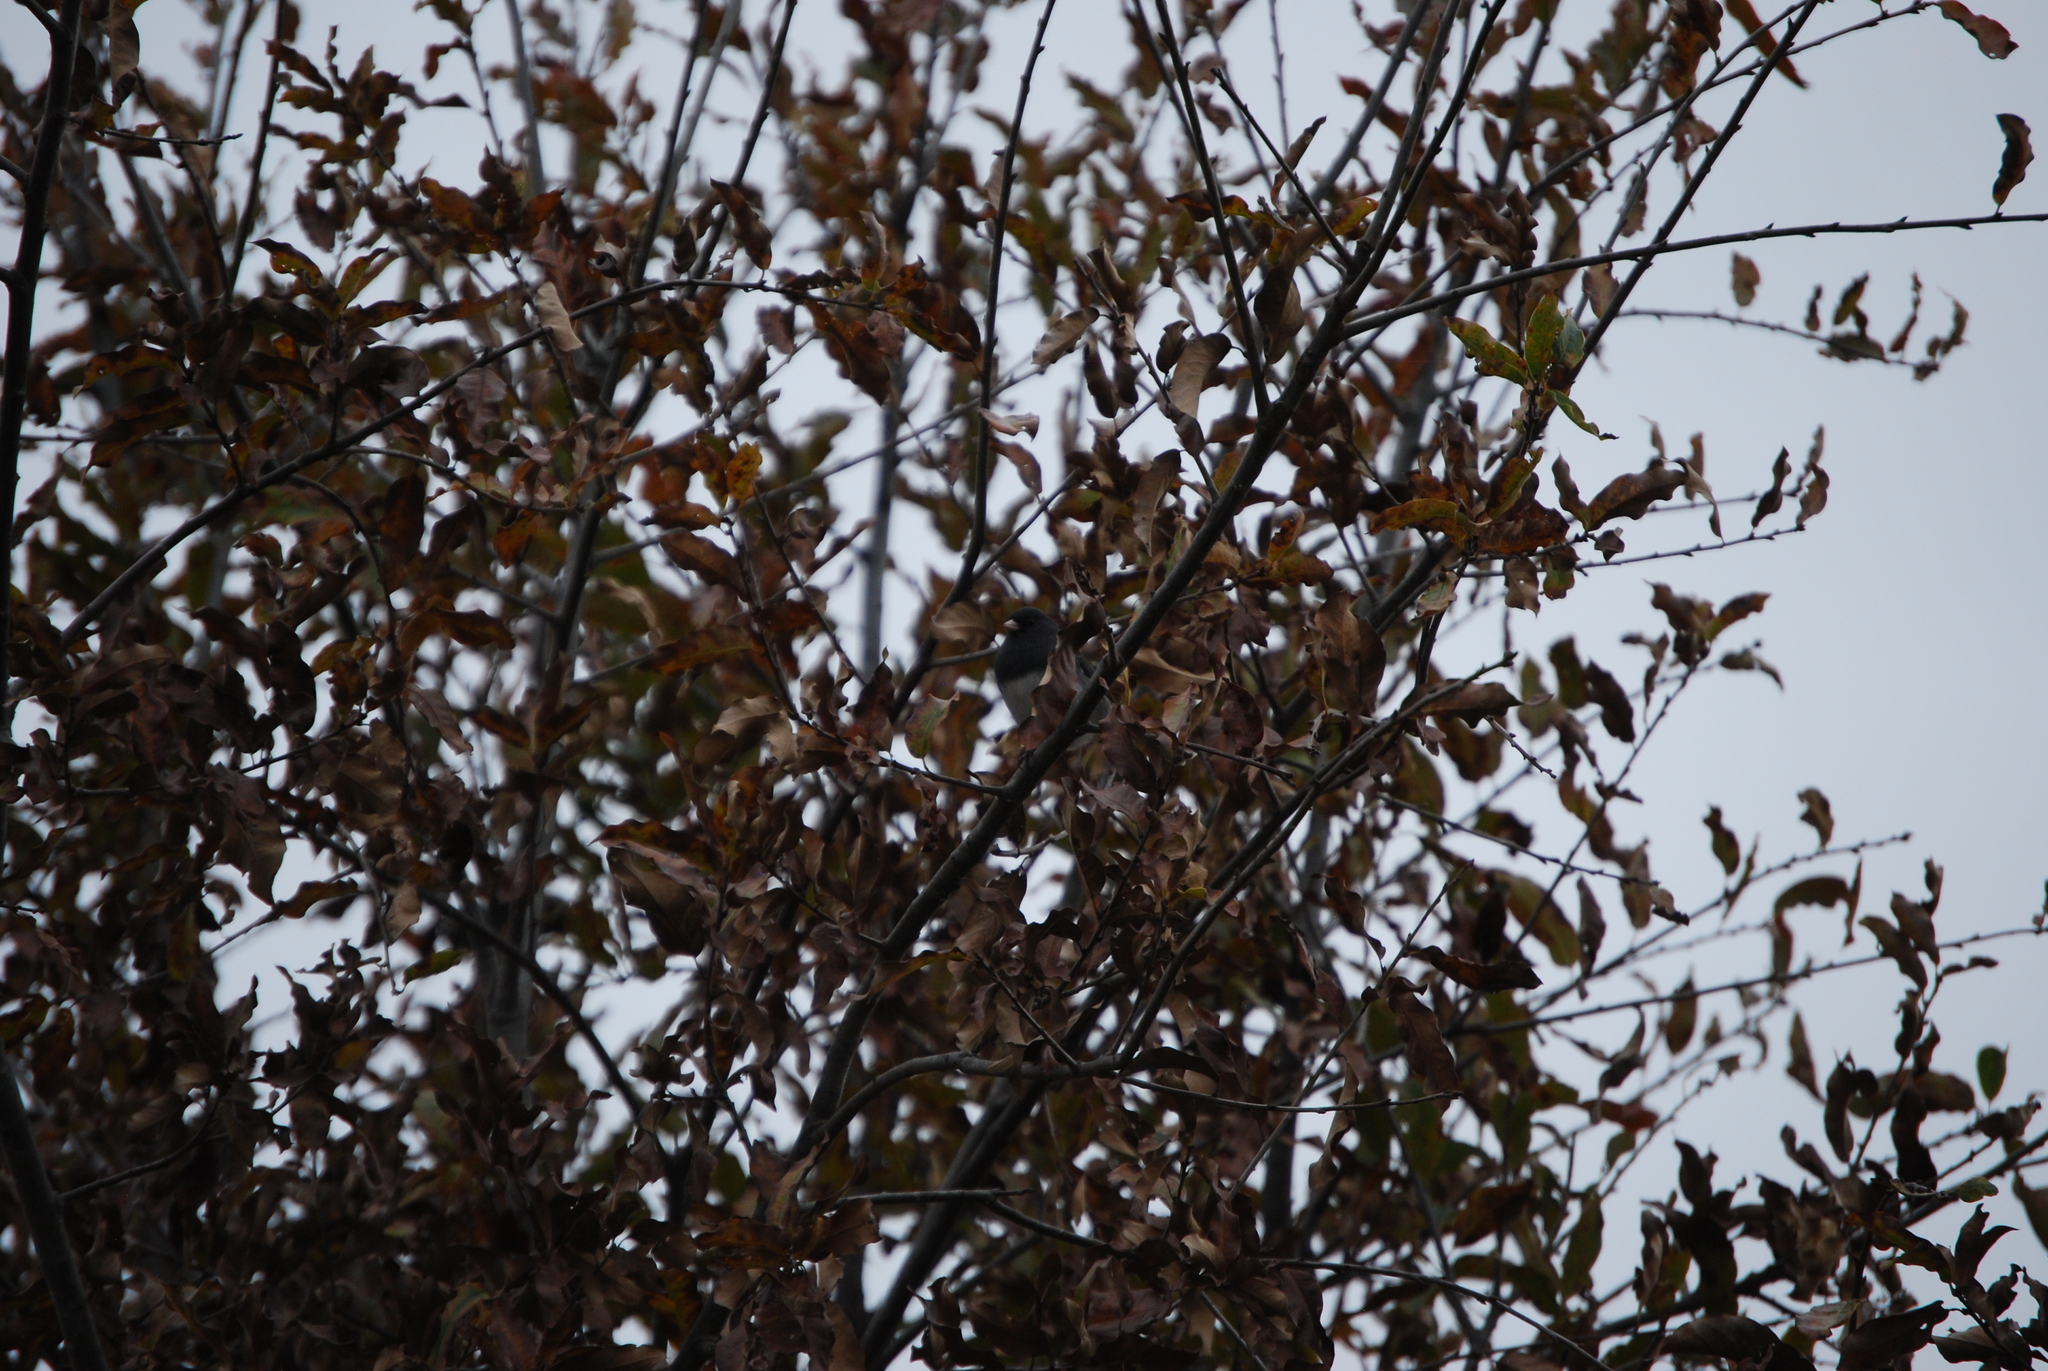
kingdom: Animalia
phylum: Chordata
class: Aves
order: Passeriformes
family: Passerellidae
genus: Junco
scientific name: Junco hyemalis
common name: Dark-eyed junco
